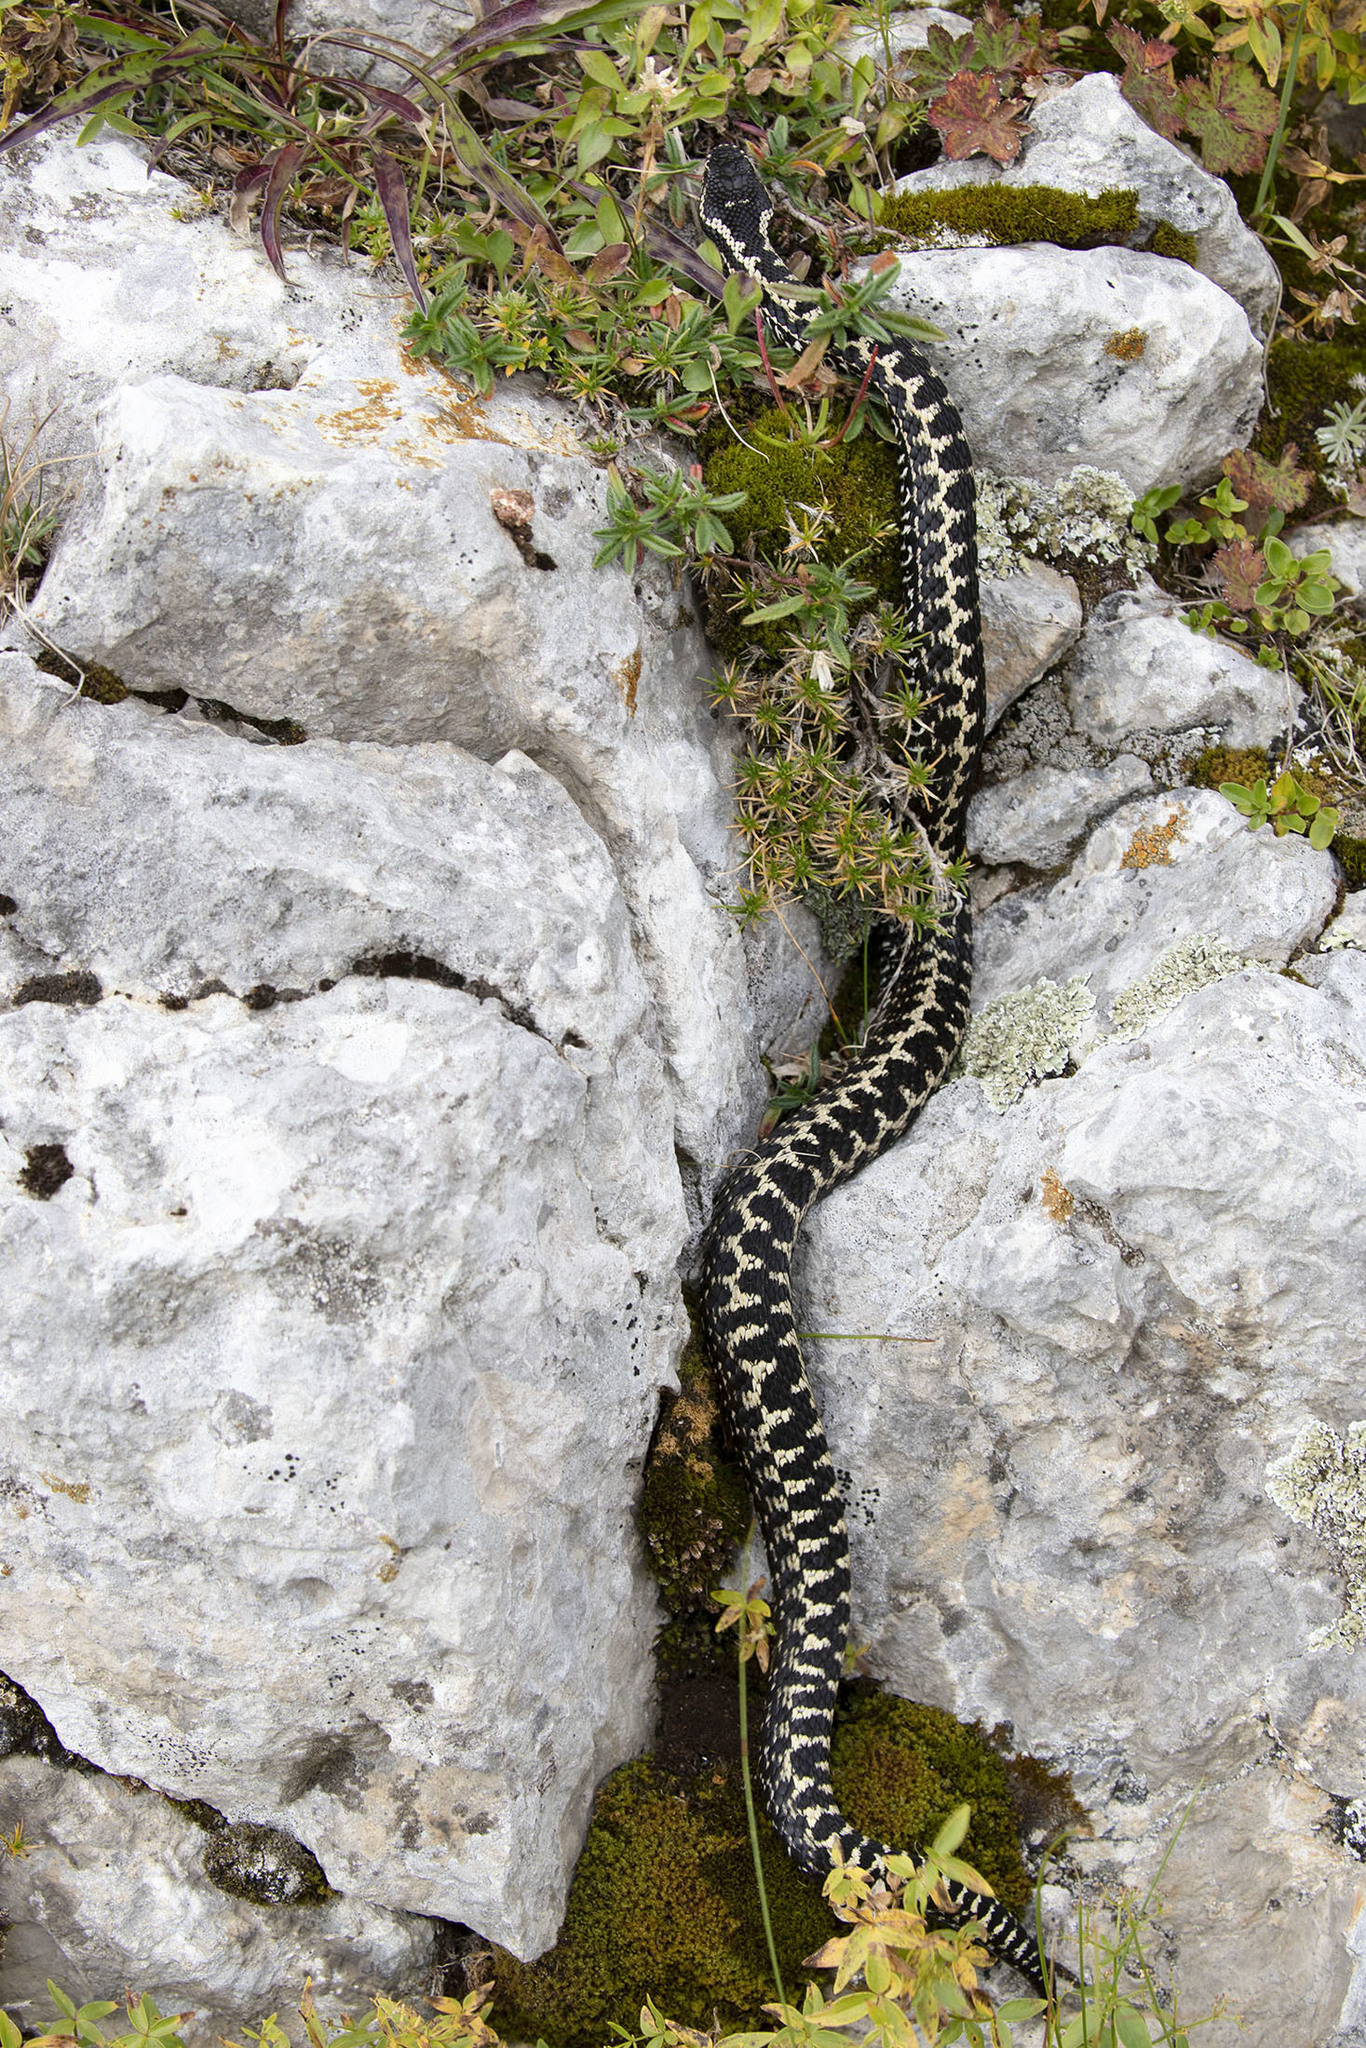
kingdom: Animalia
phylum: Chordata
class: Squamata
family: Viperidae
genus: Vipera
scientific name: Vipera dinniki
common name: Dinnik's viper
